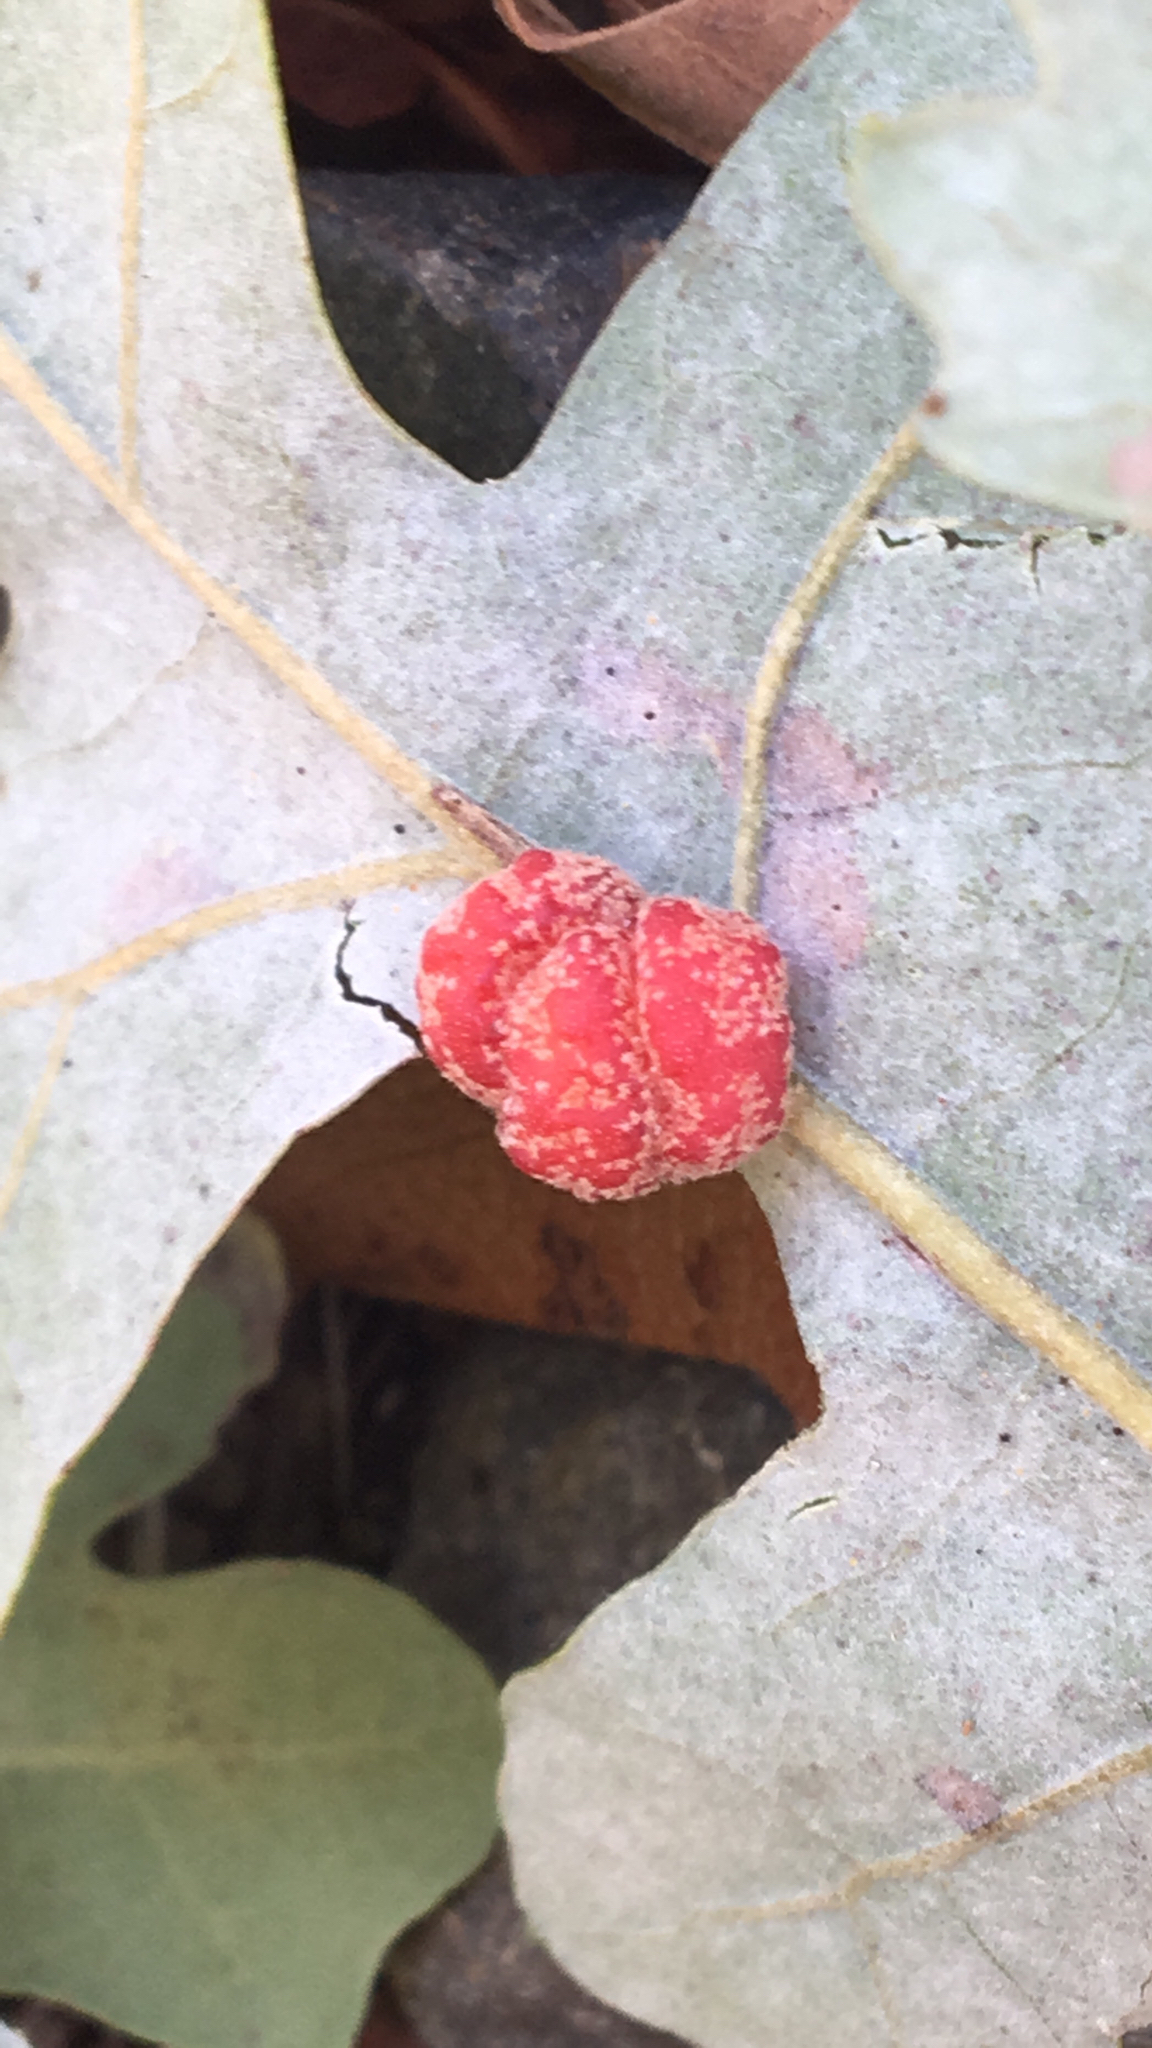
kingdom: Animalia
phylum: Arthropoda
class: Insecta
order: Hymenoptera
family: Cynipidae
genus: Andricus
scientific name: Andricus
